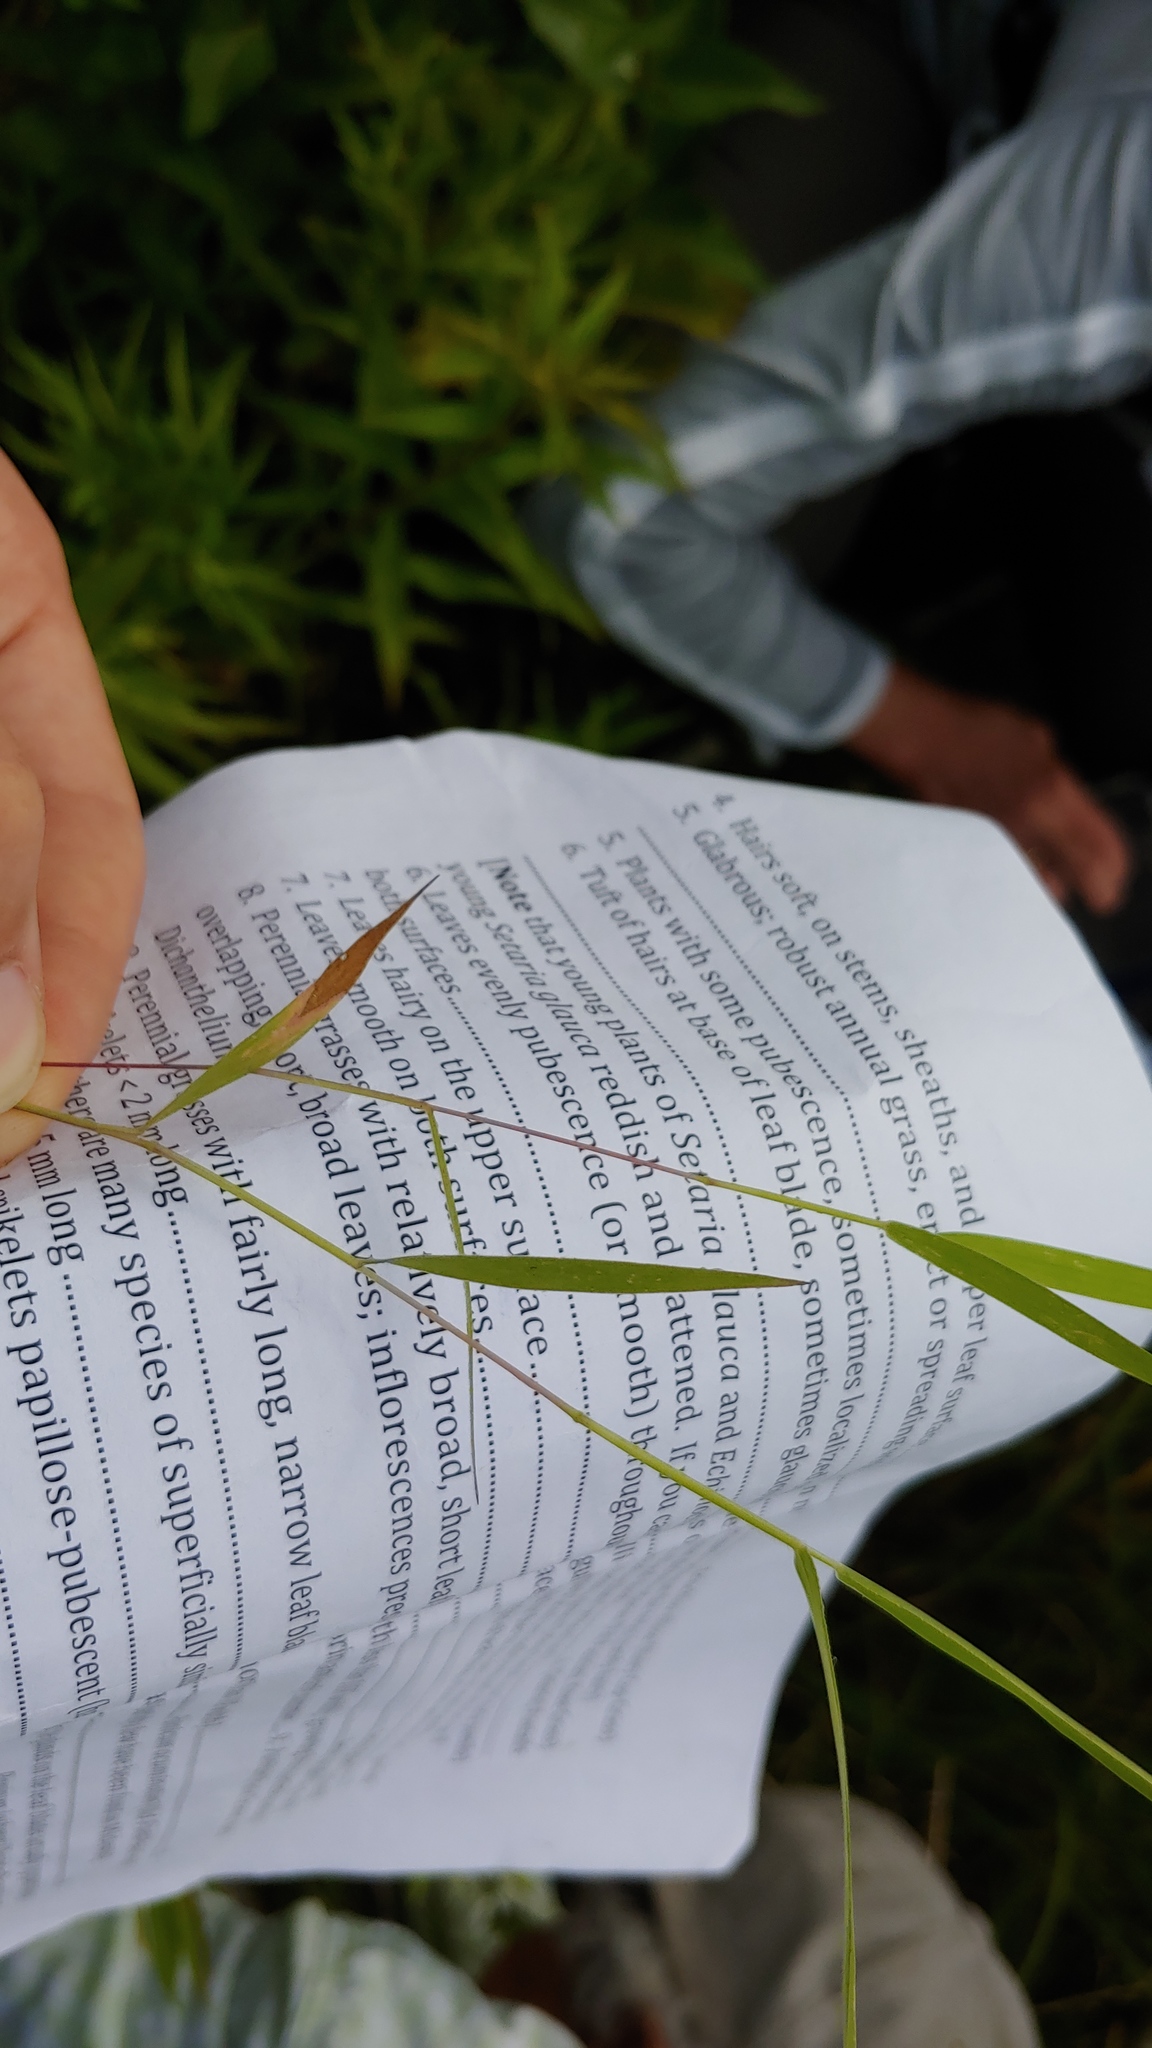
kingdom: Plantae
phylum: Tracheophyta
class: Liliopsida
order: Poales
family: Poaceae
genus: Eriochloa
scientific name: Eriochloa villosa
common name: Hairy cupgrass
